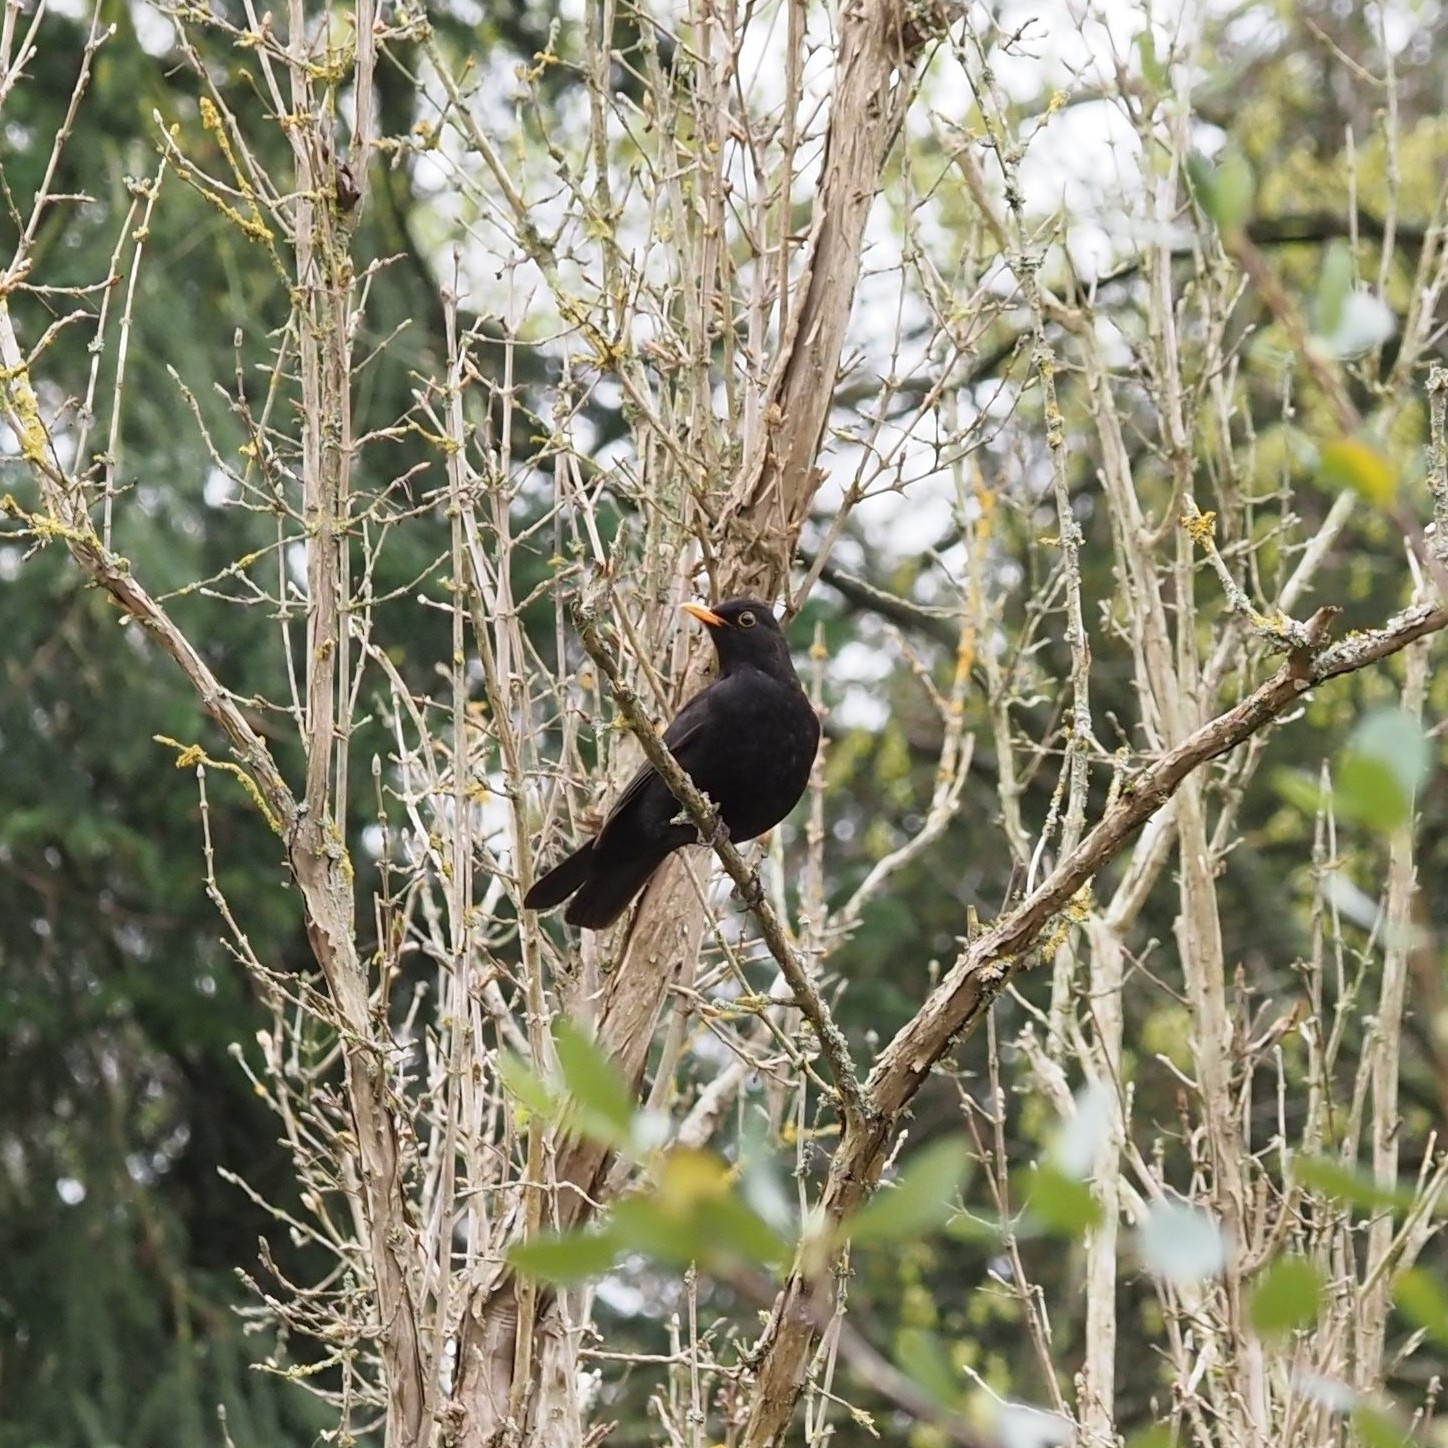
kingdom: Animalia
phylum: Chordata
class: Aves
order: Passeriformes
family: Turdidae
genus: Turdus
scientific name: Turdus merula
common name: Common blackbird
